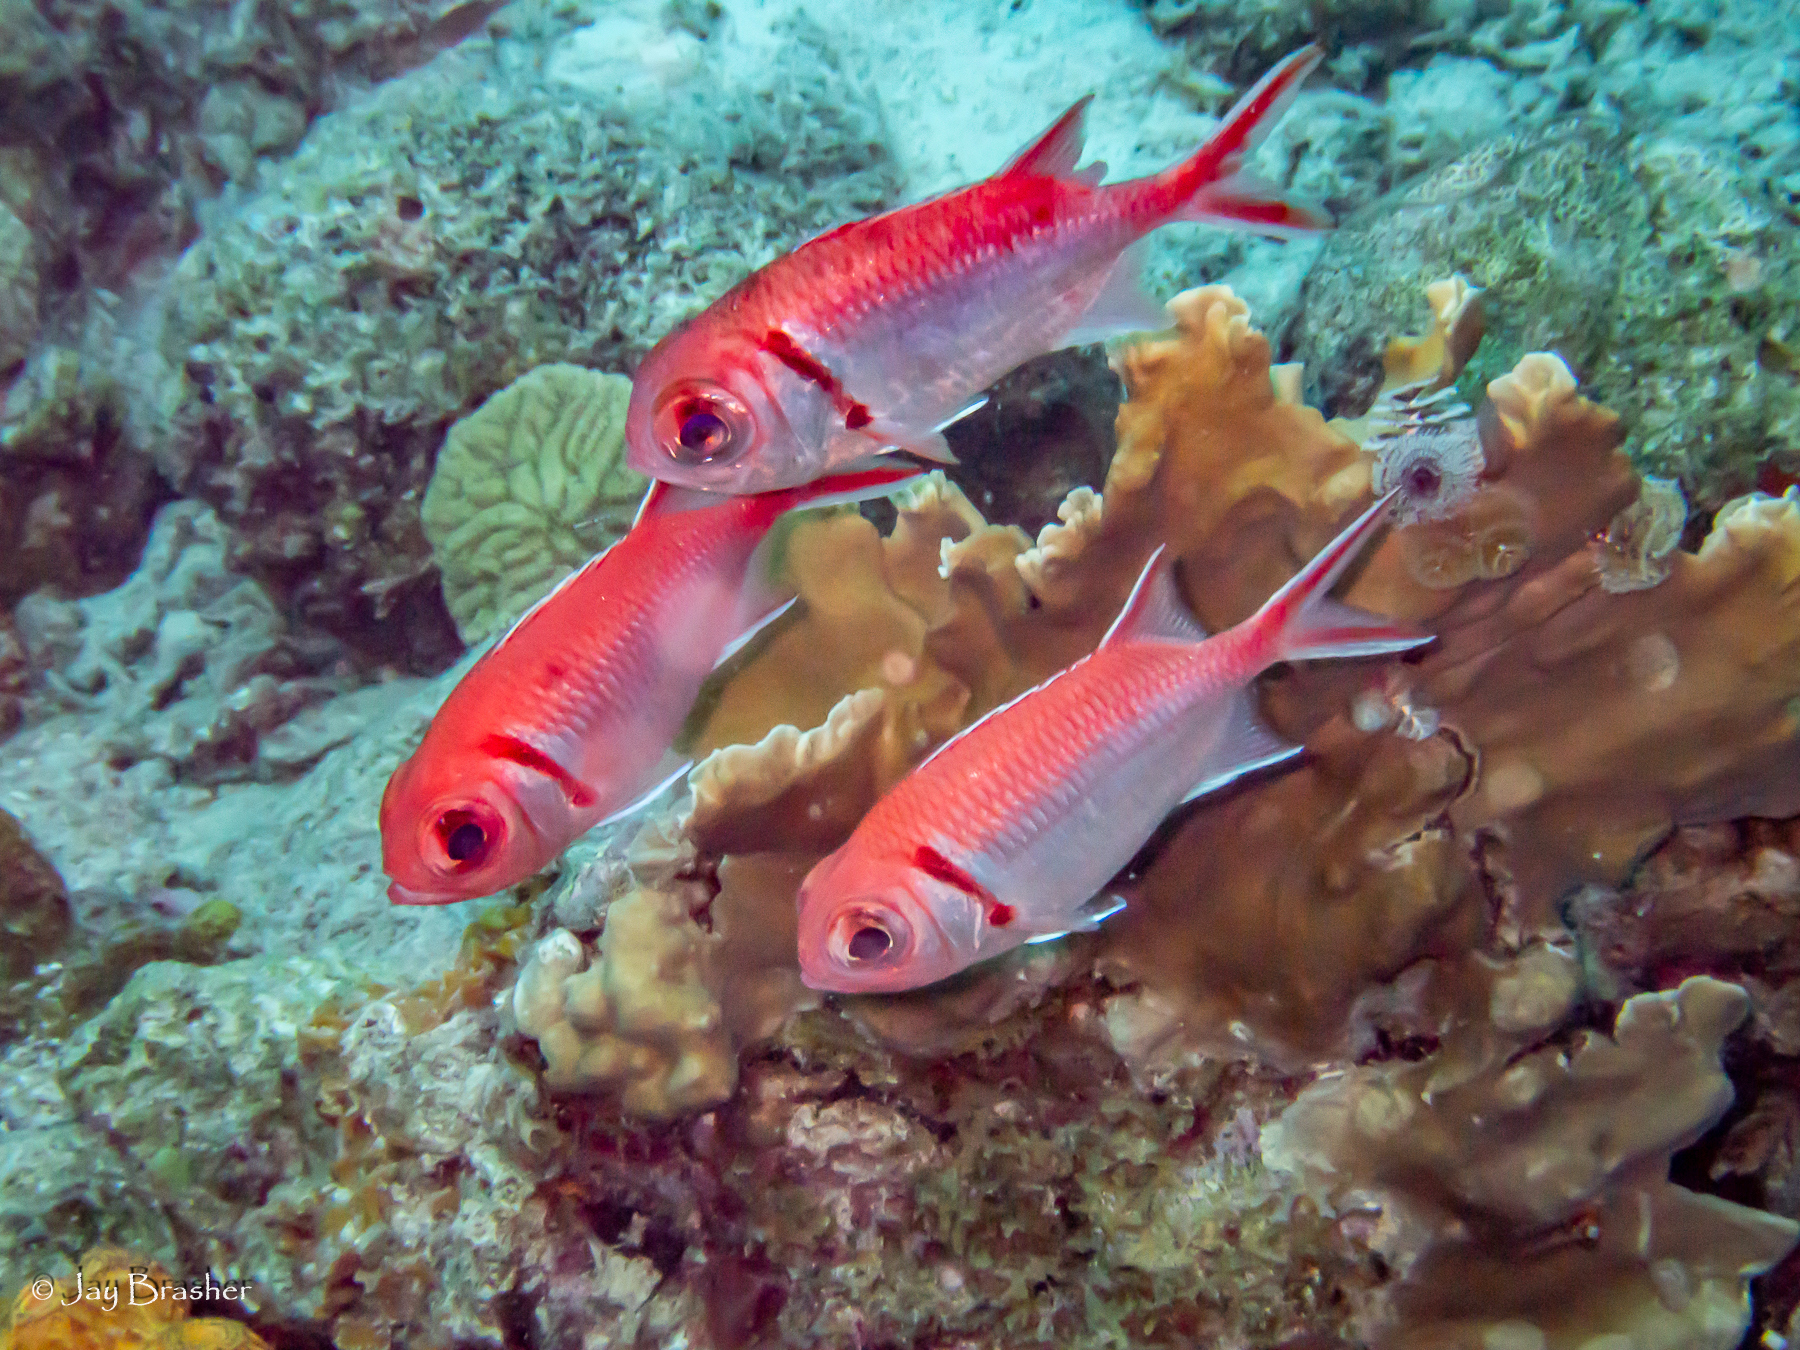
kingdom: Animalia
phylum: Annelida
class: Polychaeta
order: Sabellida
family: Serpulidae
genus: Spirobranchus
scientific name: Spirobranchus giganteus
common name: Christmas tree worm
